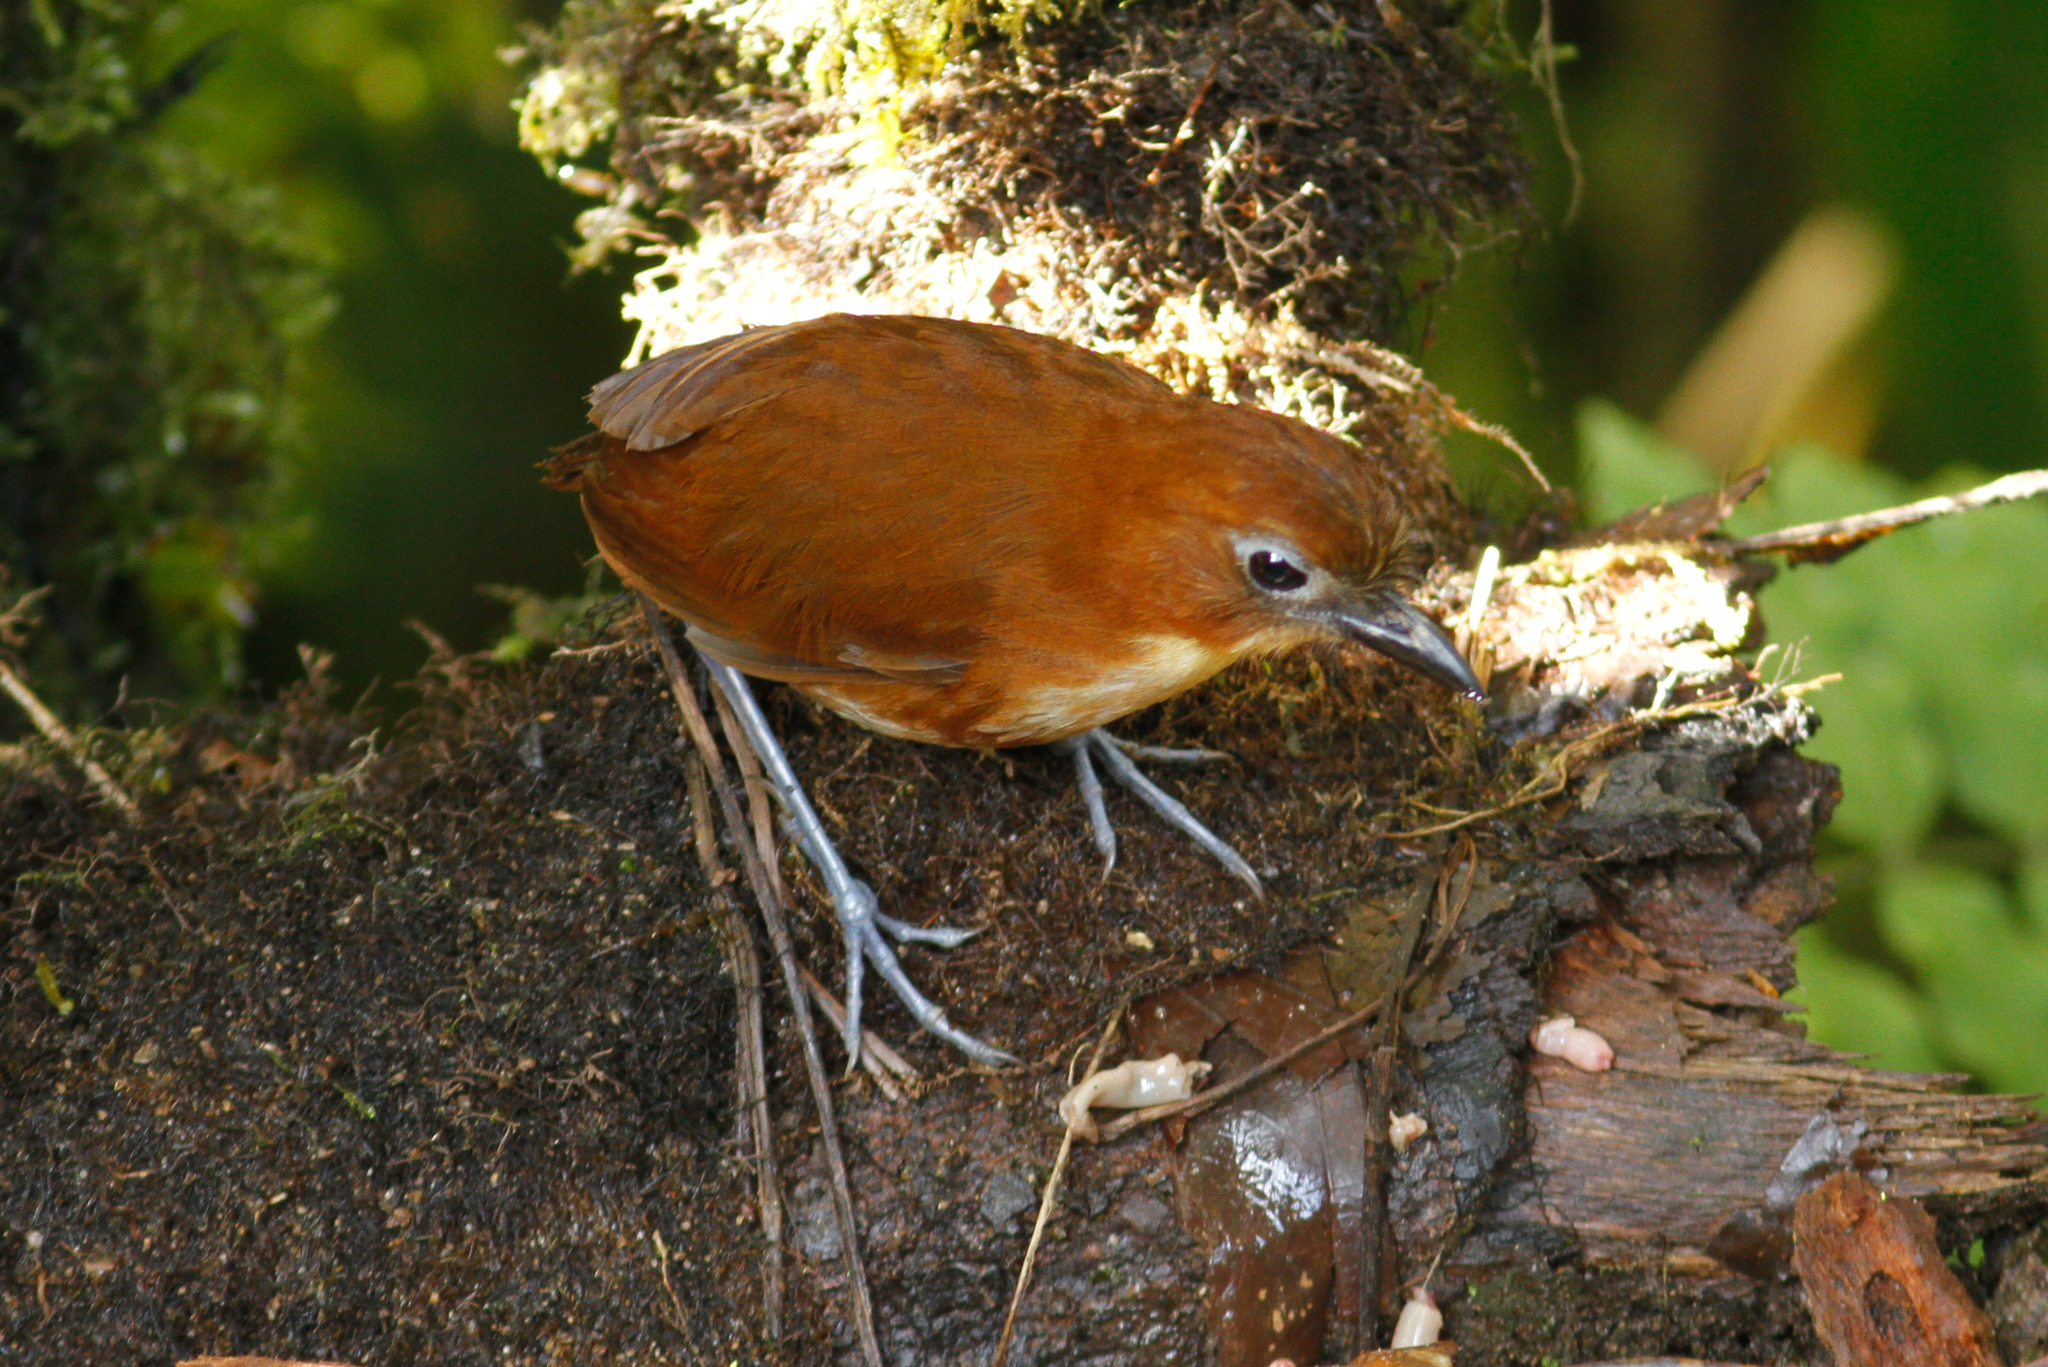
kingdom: Animalia
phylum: Chordata
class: Aves
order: Passeriformes
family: Grallariidae
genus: Grallaria
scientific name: Grallaria flavotincta
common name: Yellow-breasted antpitta
